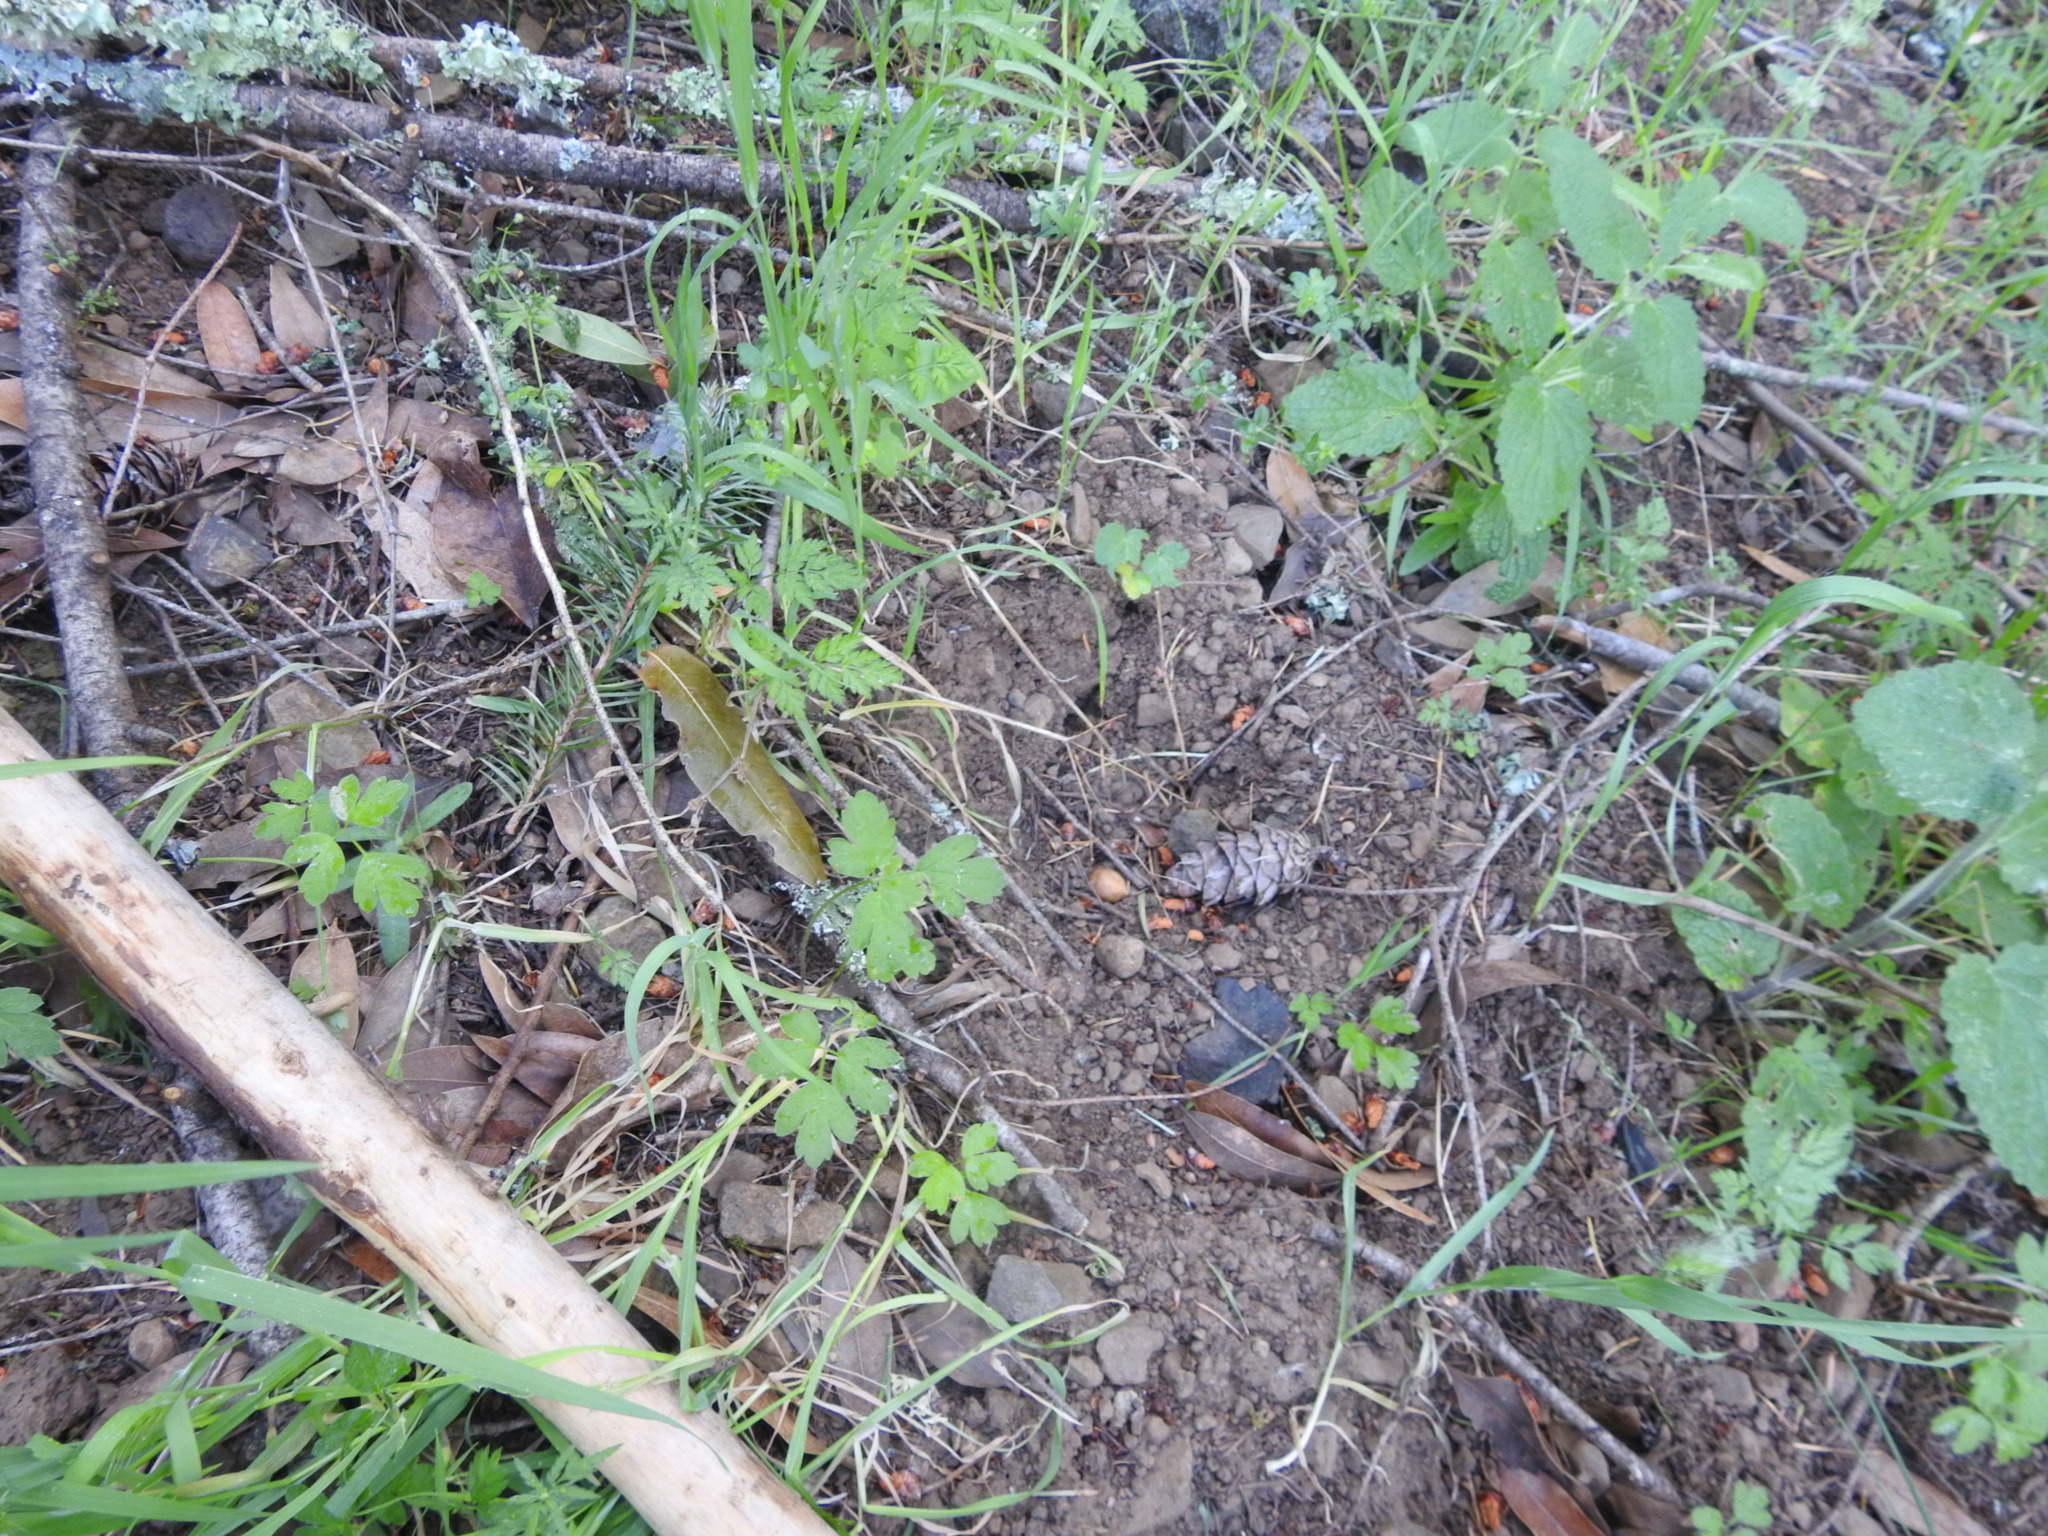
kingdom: Plantae
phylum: Tracheophyta
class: Pinopsida
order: Pinales
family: Pinaceae
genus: Pseudotsuga
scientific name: Pseudotsuga menziesii
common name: Douglas fir
